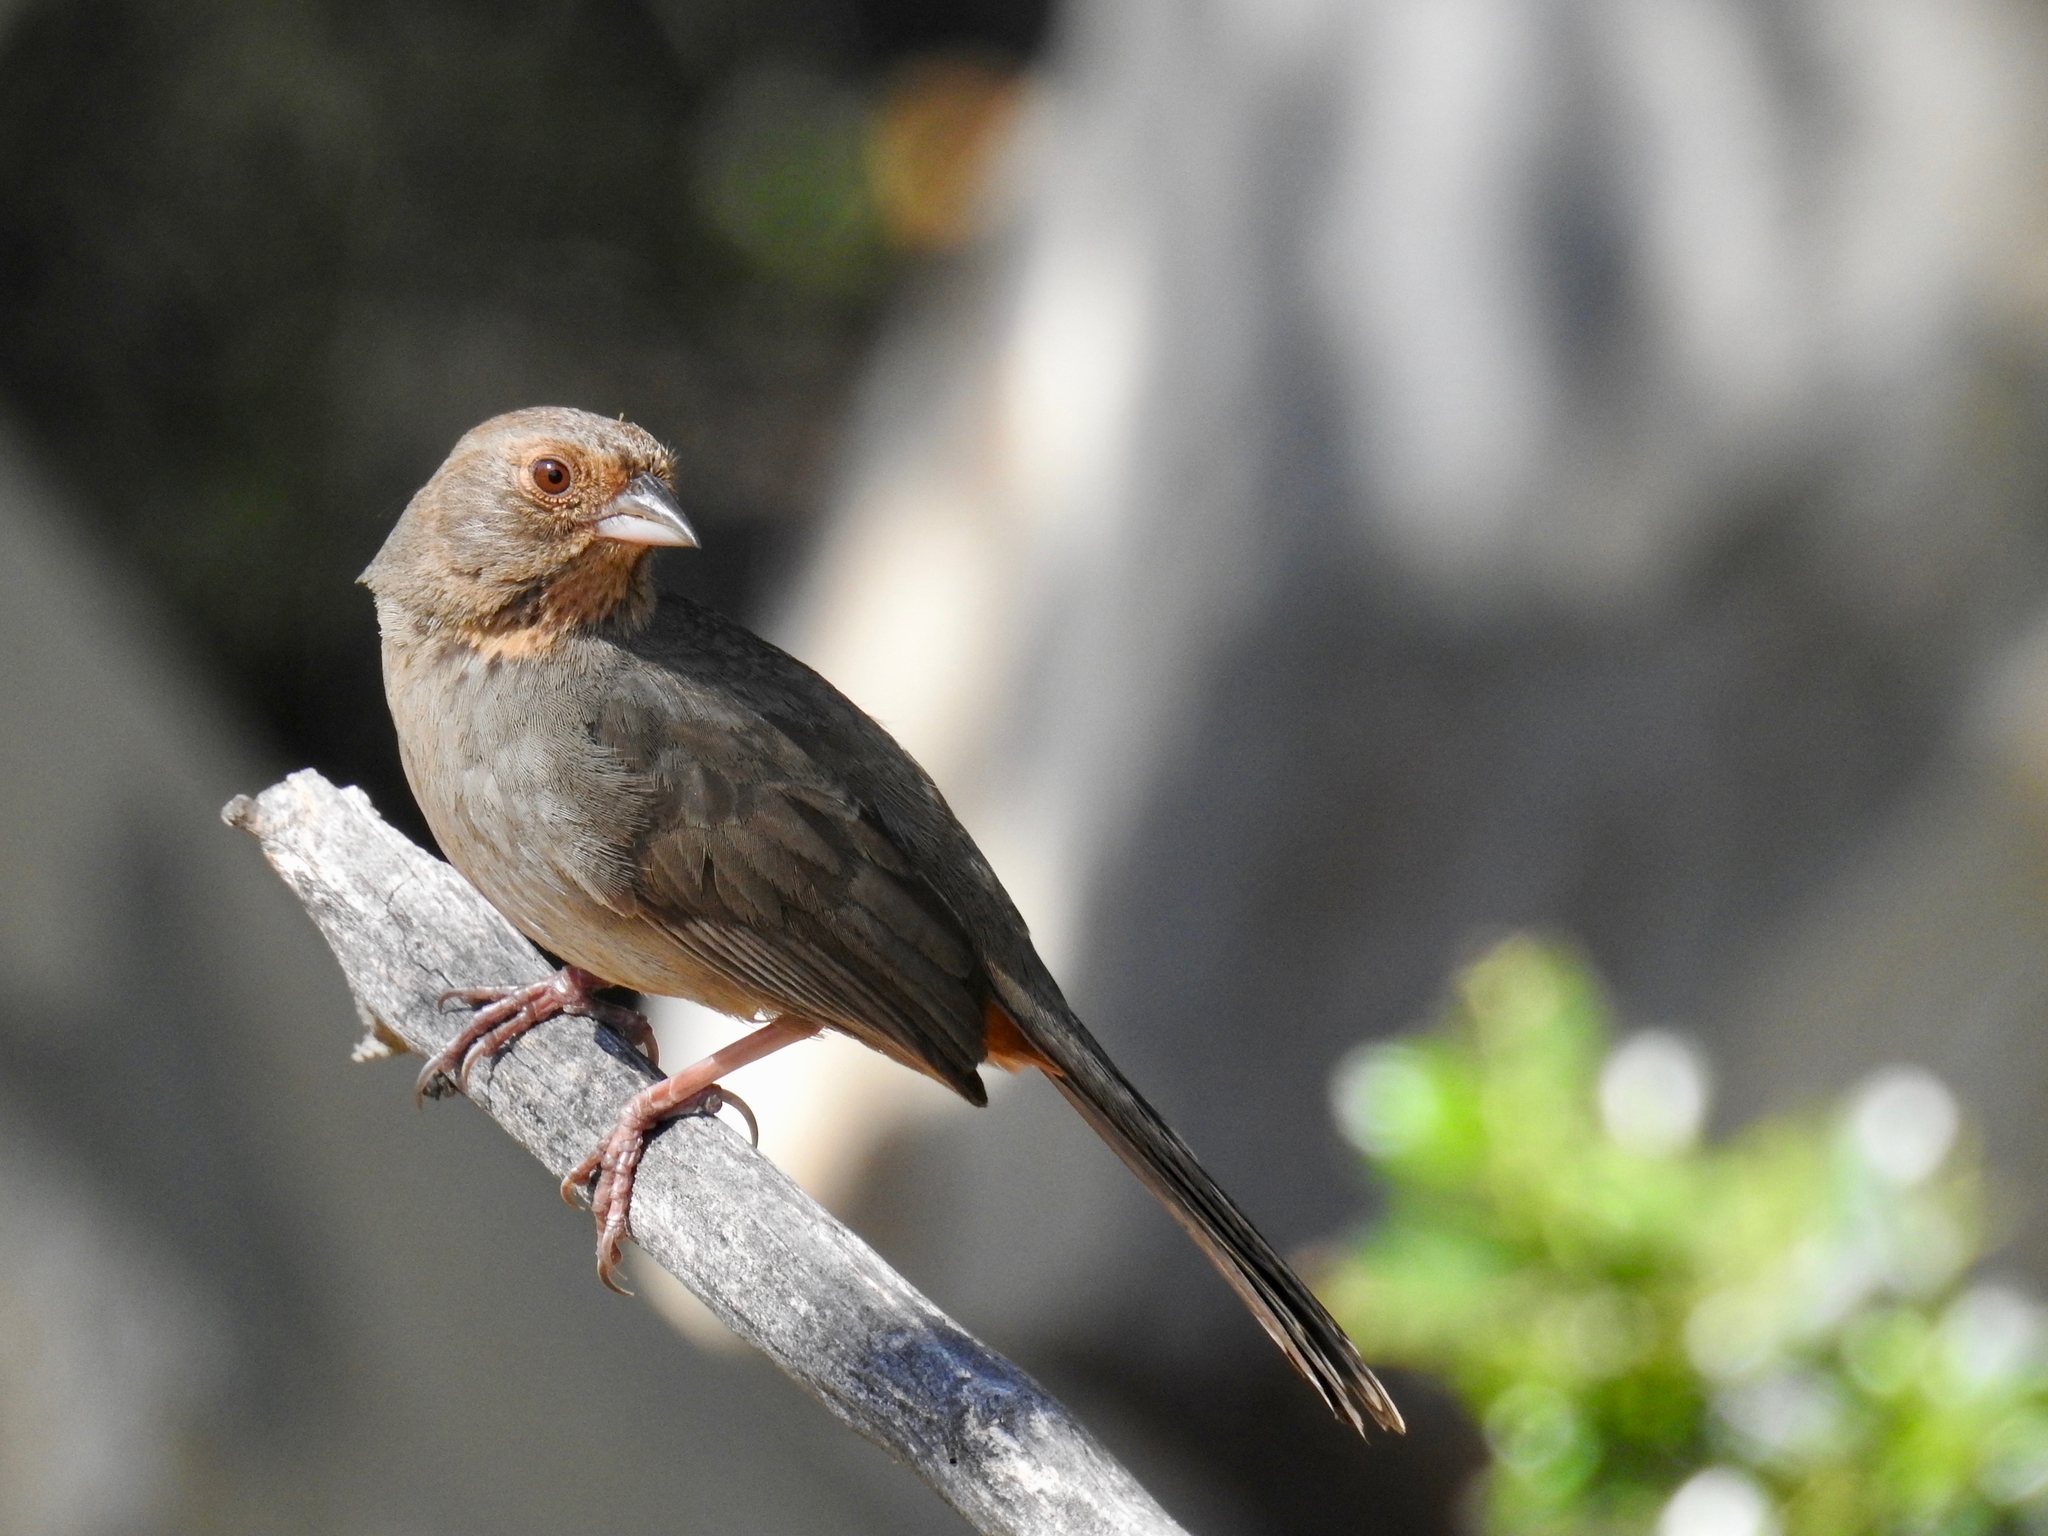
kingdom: Animalia
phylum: Chordata
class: Aves
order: Passeriformes
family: Passerellidae
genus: Melozone
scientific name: Melozone crissalis
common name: California towhee
